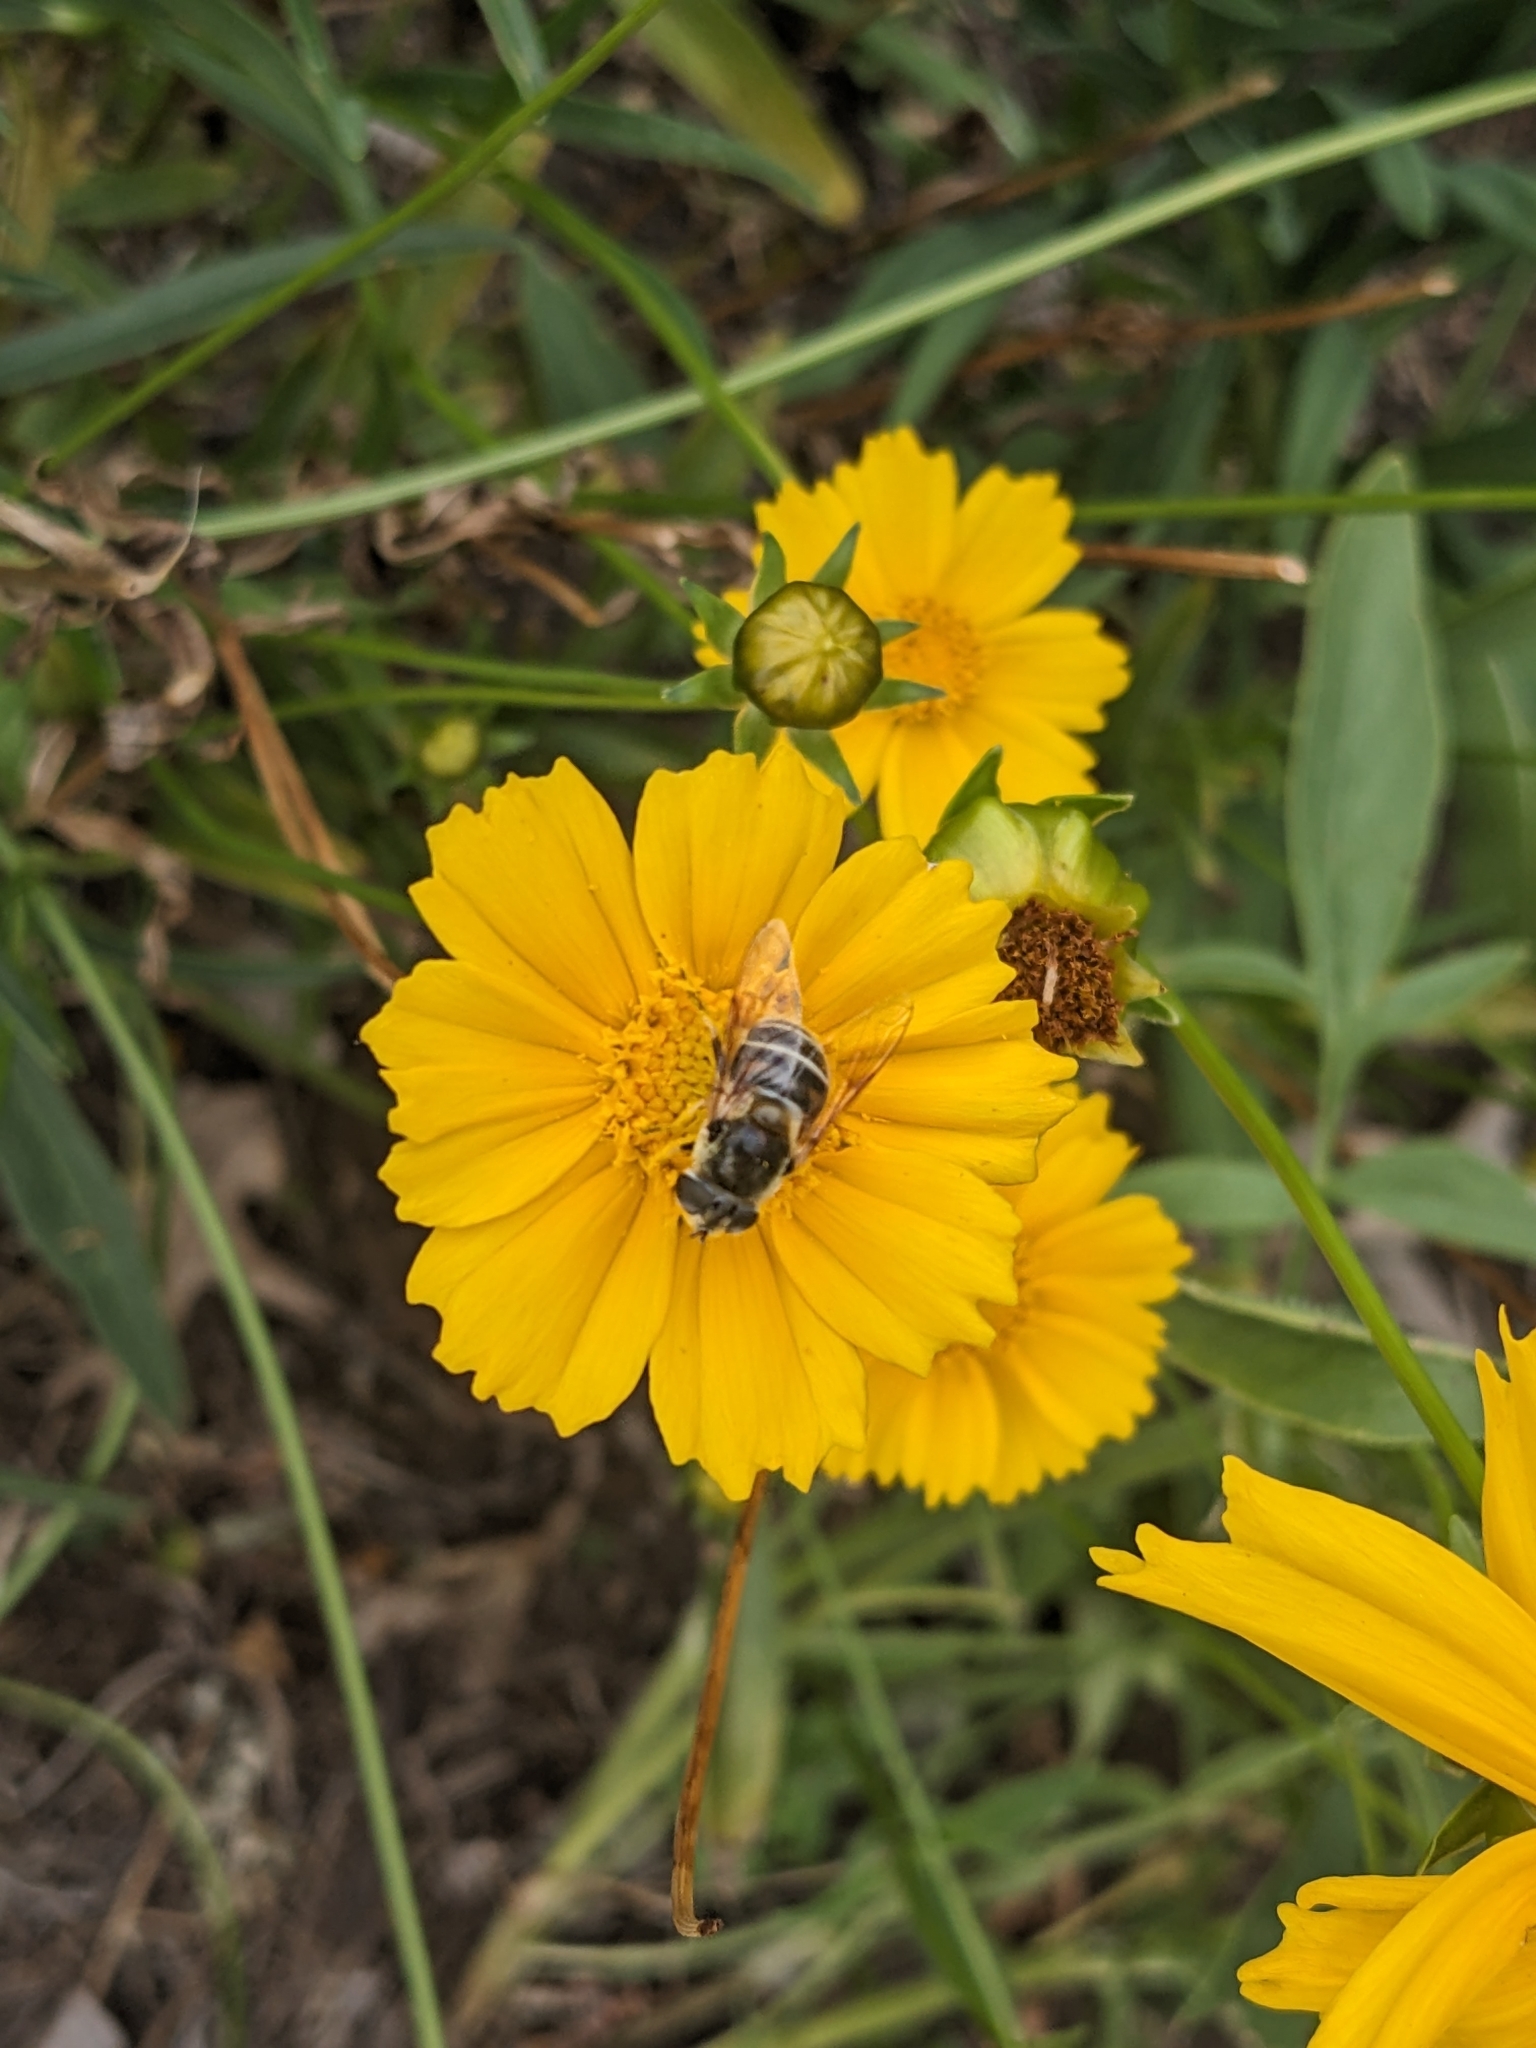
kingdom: Animalia
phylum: Arthropoda
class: Insecta
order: Diptera
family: Syrphidae
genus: Eristalis
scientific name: Eristalis stipator
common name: Yellow-shouldered drone fly
